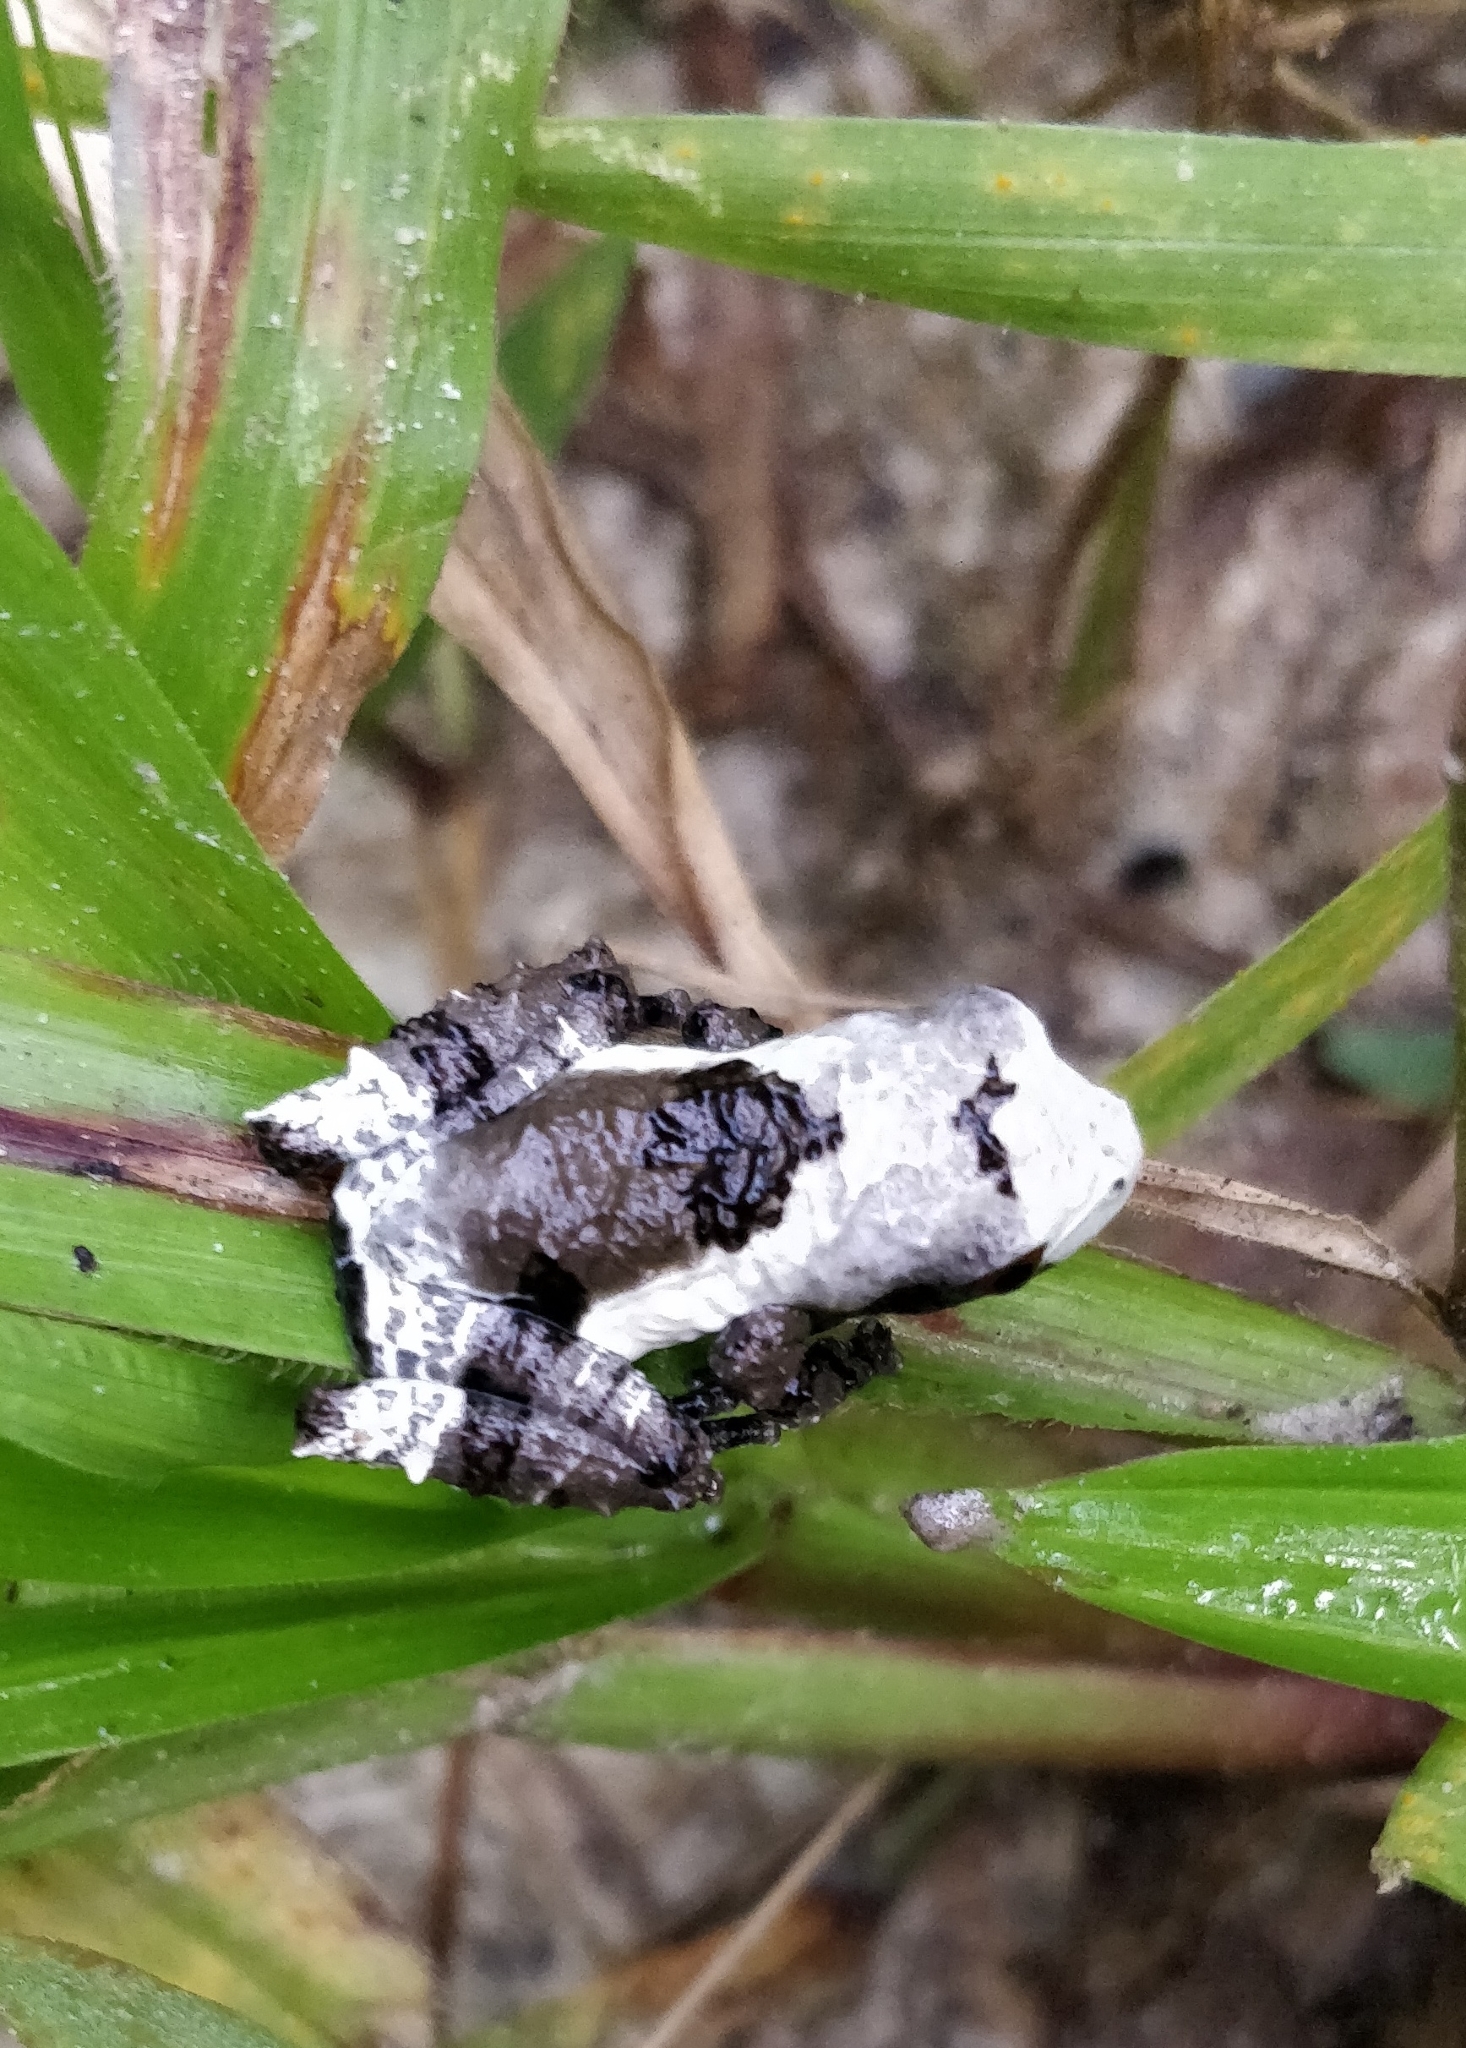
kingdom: Animalia
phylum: Chordata
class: Amphibia
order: Anura
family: Rhacophoridae
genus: Theloderma
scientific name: Theloderma baibungense
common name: Baibung small treefrog
